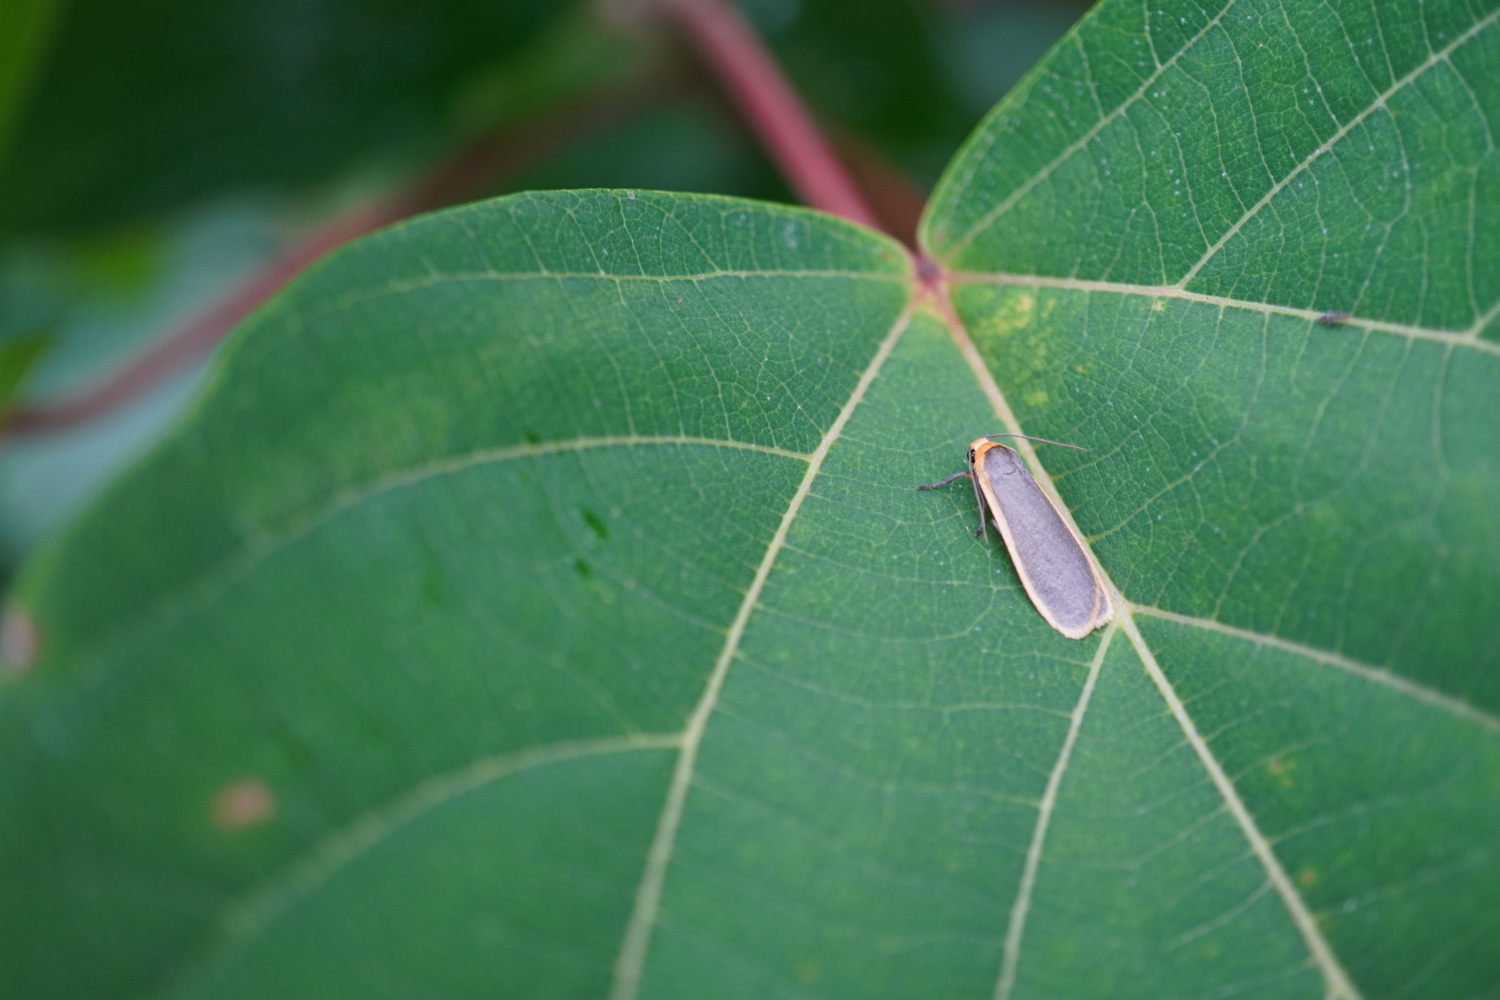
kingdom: Animalia
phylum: Arthropoda
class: Insecta
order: Lepidoptera
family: Erebidae
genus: Manulea
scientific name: Manulea japonica
